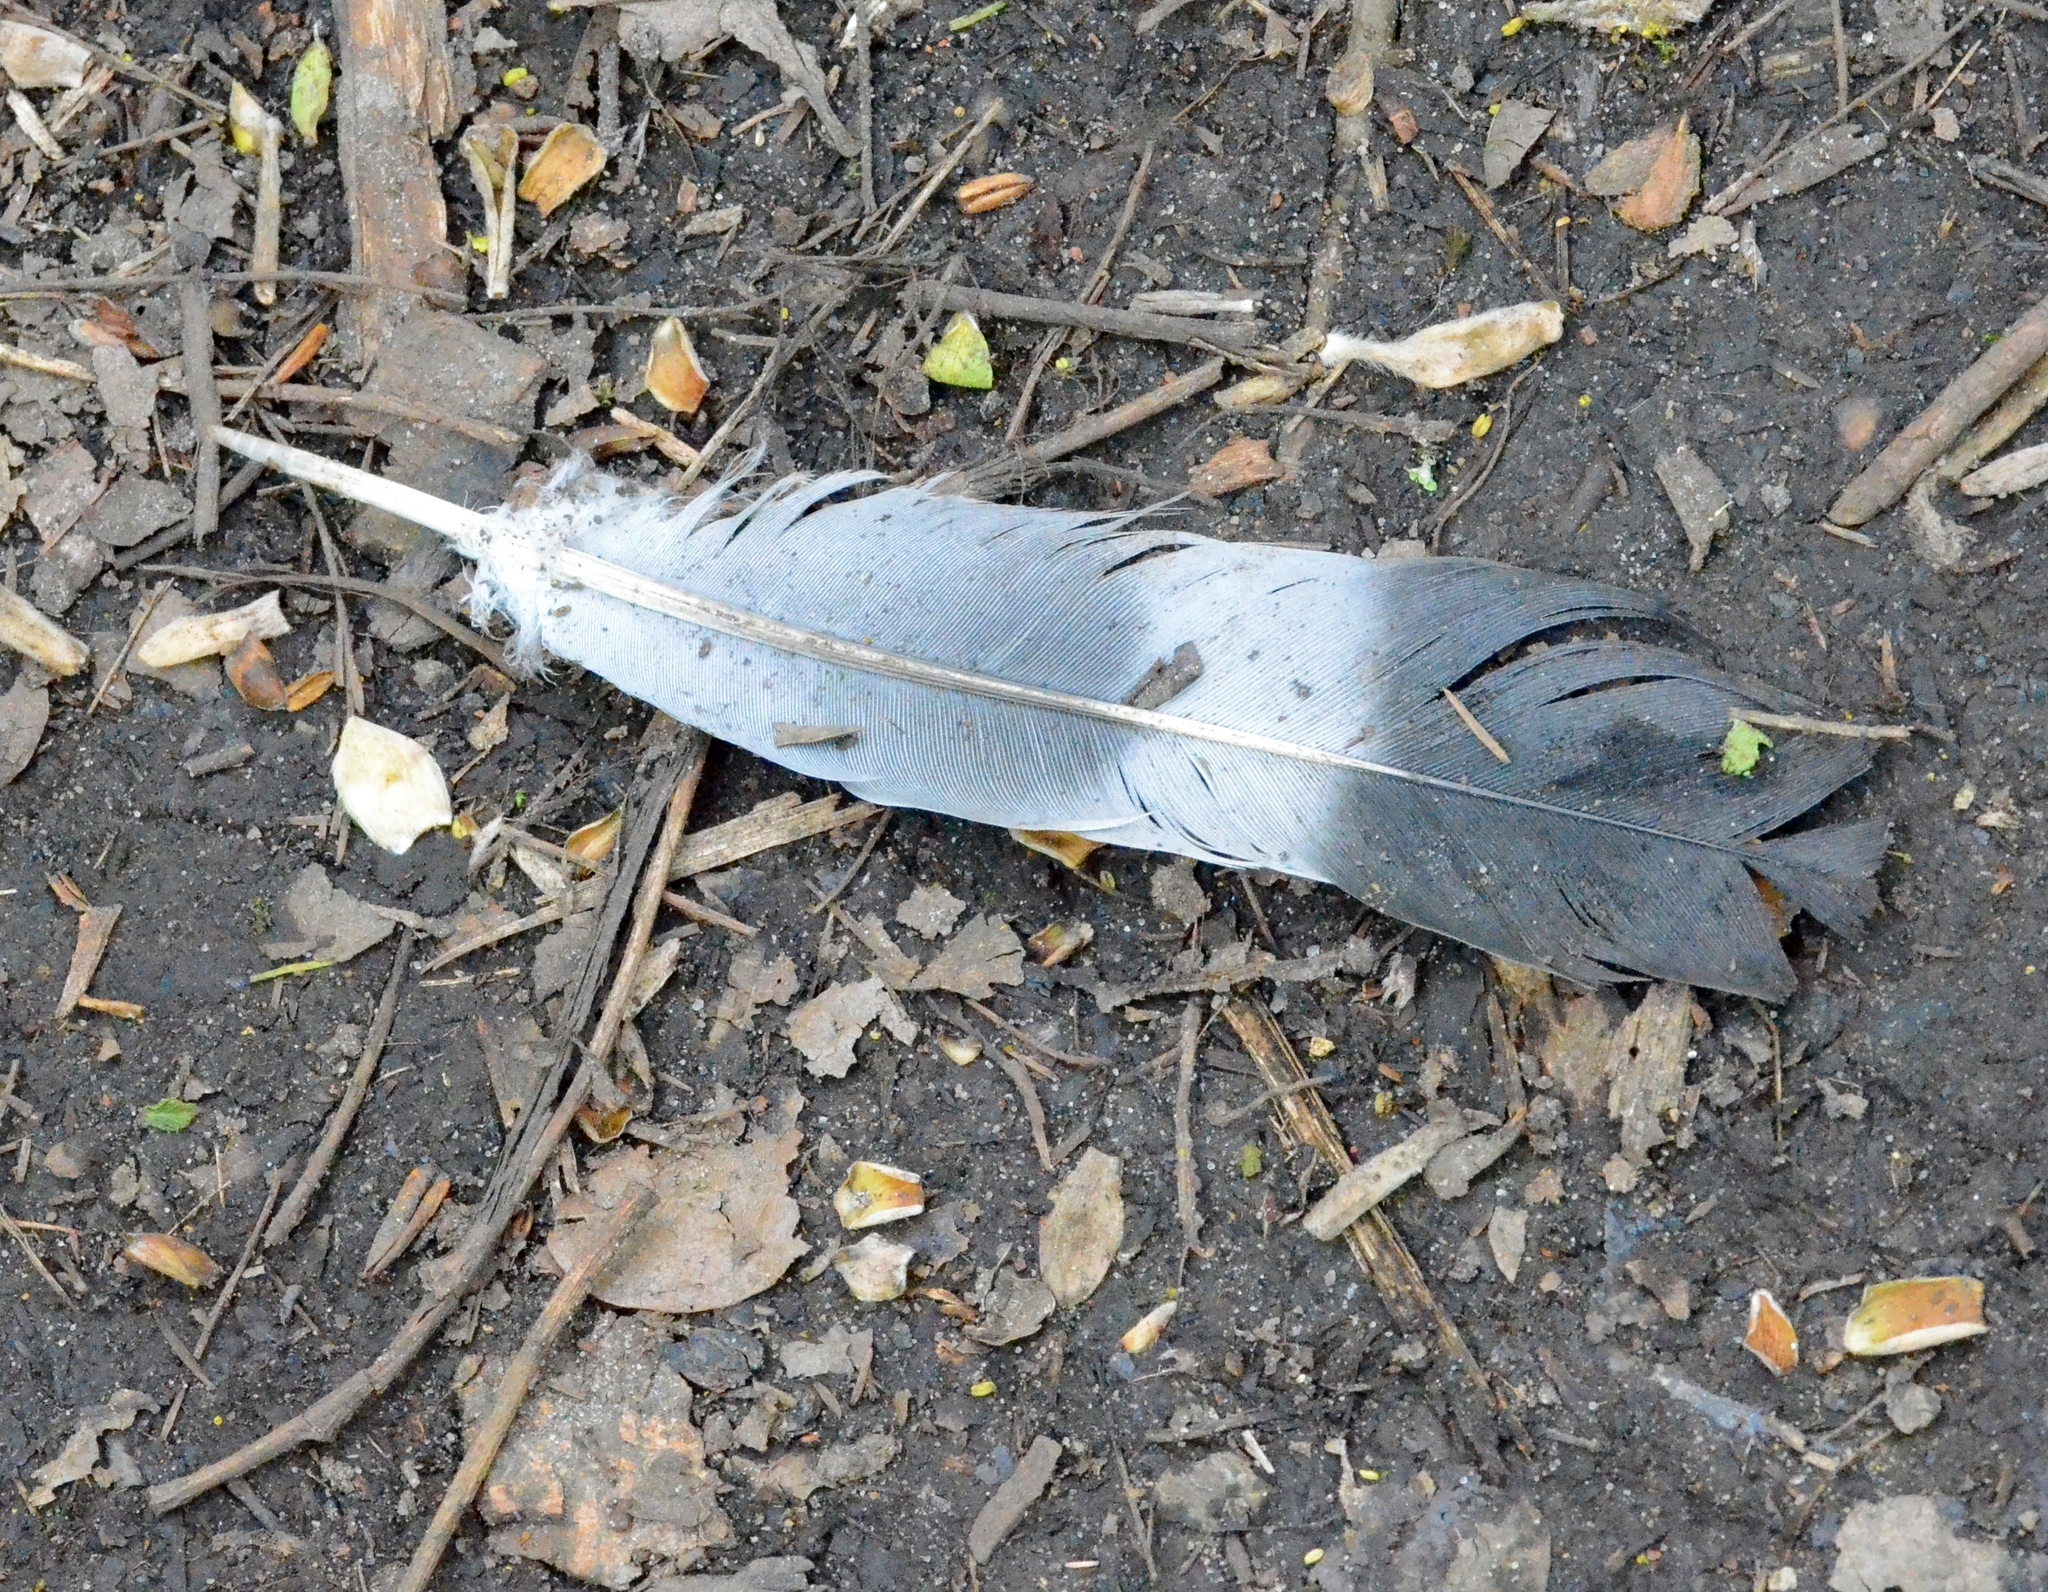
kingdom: Animalia
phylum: Chordata
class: Aves
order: Columbiformes
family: Columbidae
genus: Columba
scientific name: Columba palumbus
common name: Common wood pigeon
